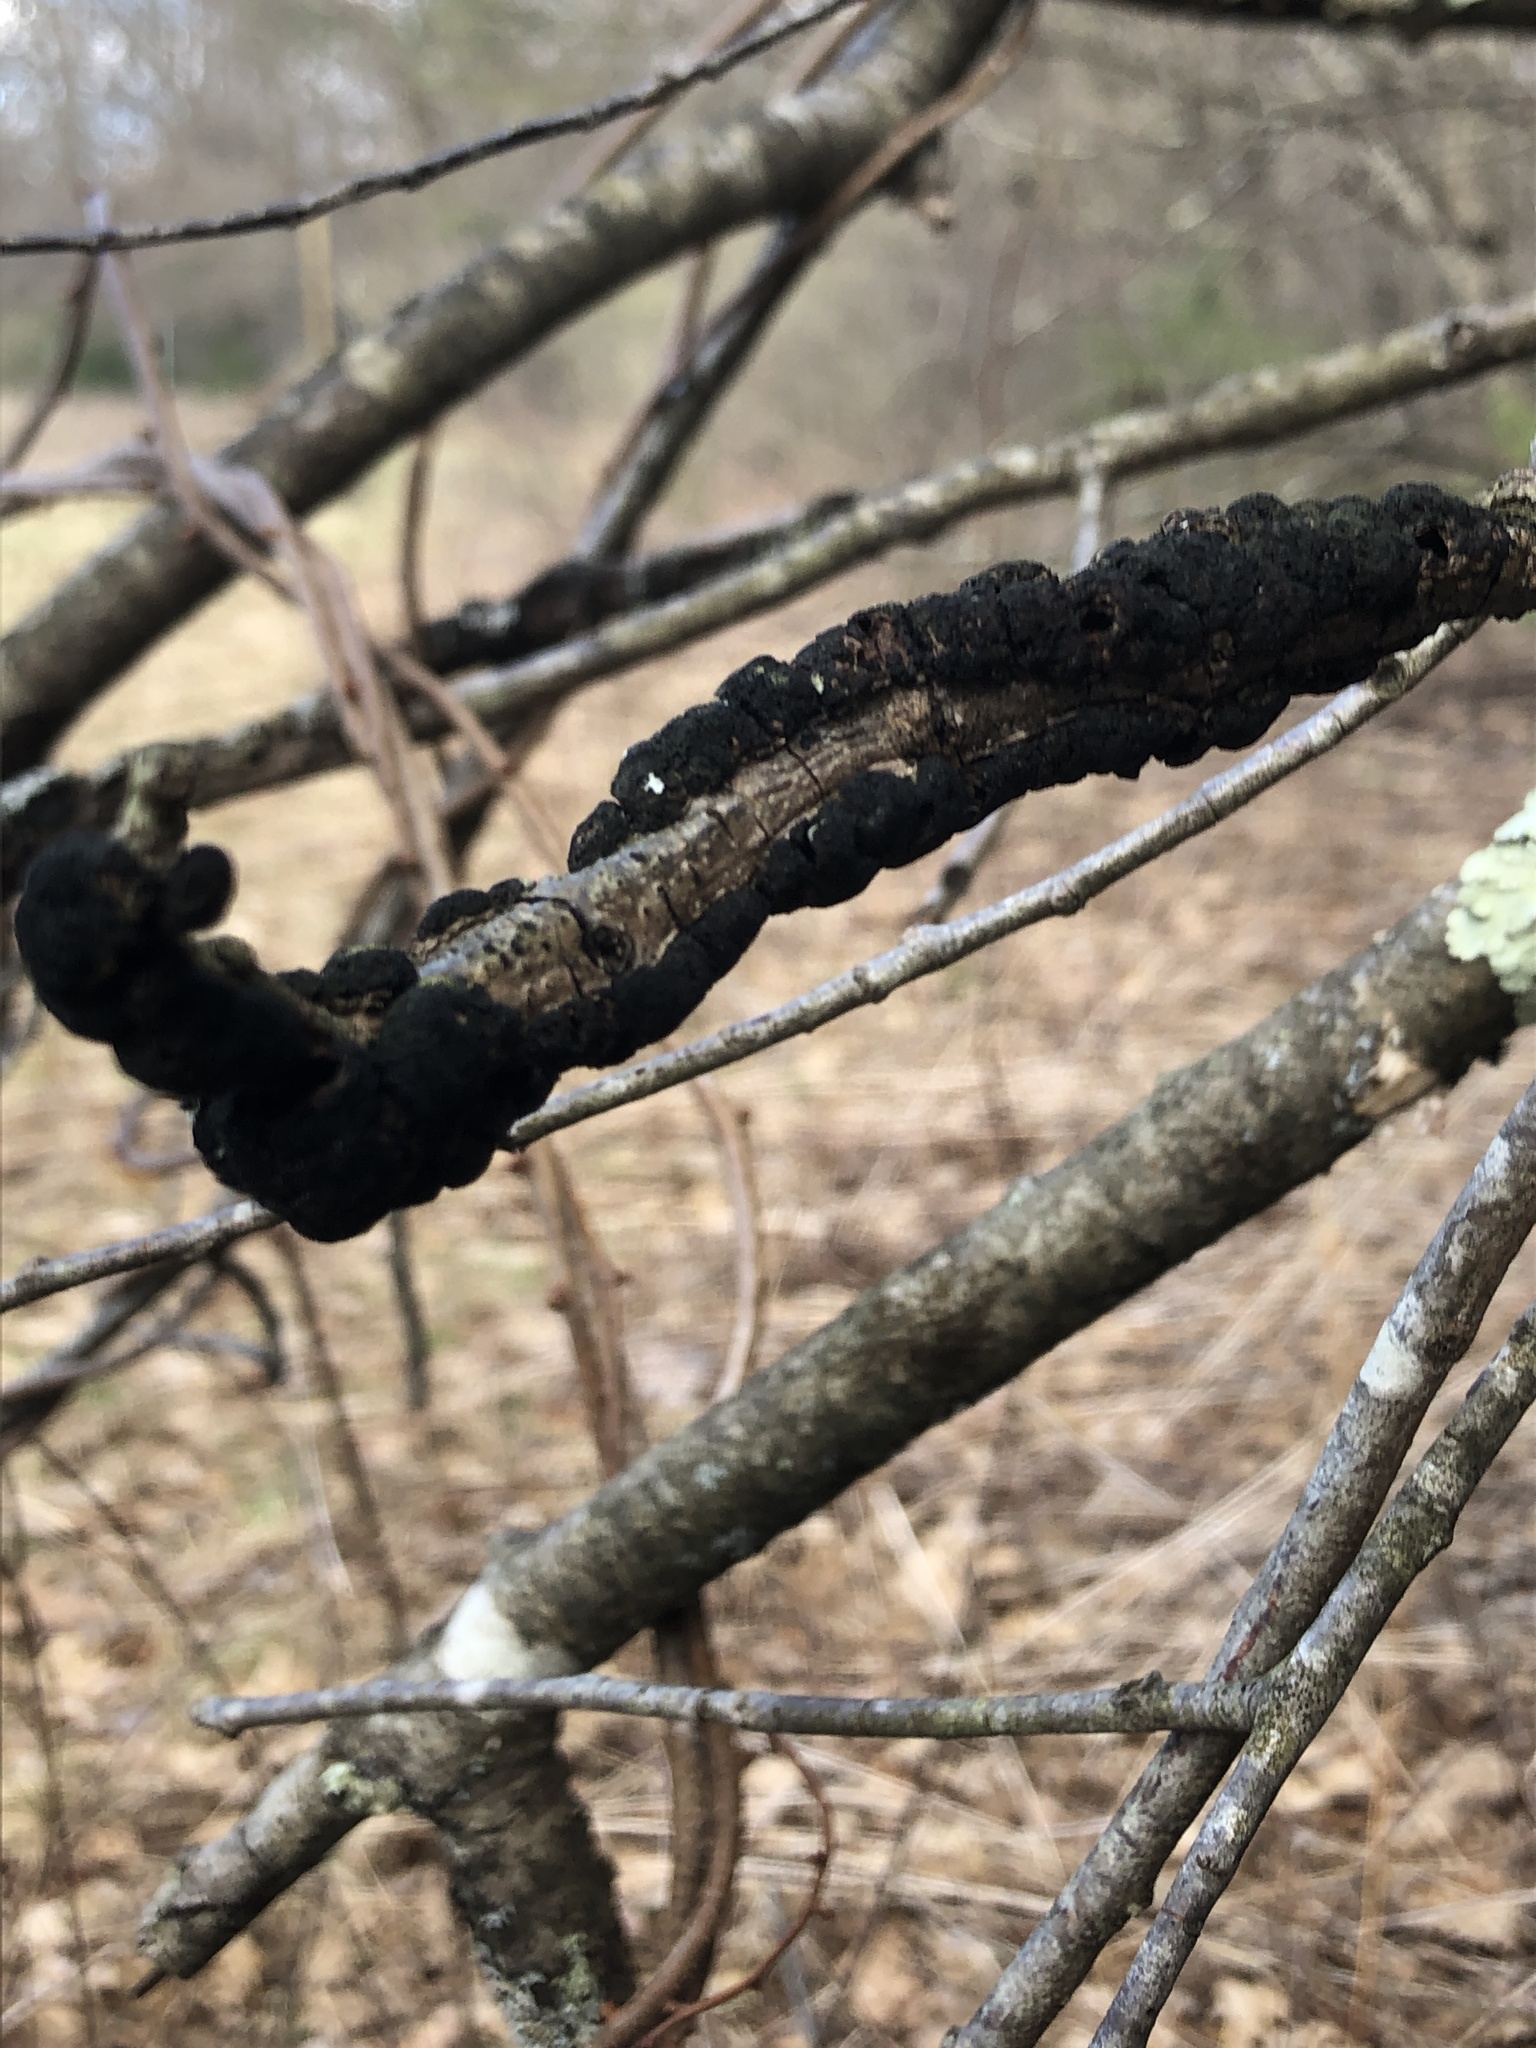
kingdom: Fungi
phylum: Ascomycota
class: Dothideomycetes
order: Venturiales
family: Venturiaceae
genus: Apiosporina
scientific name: Apiosporina morbosa
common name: Black knot
